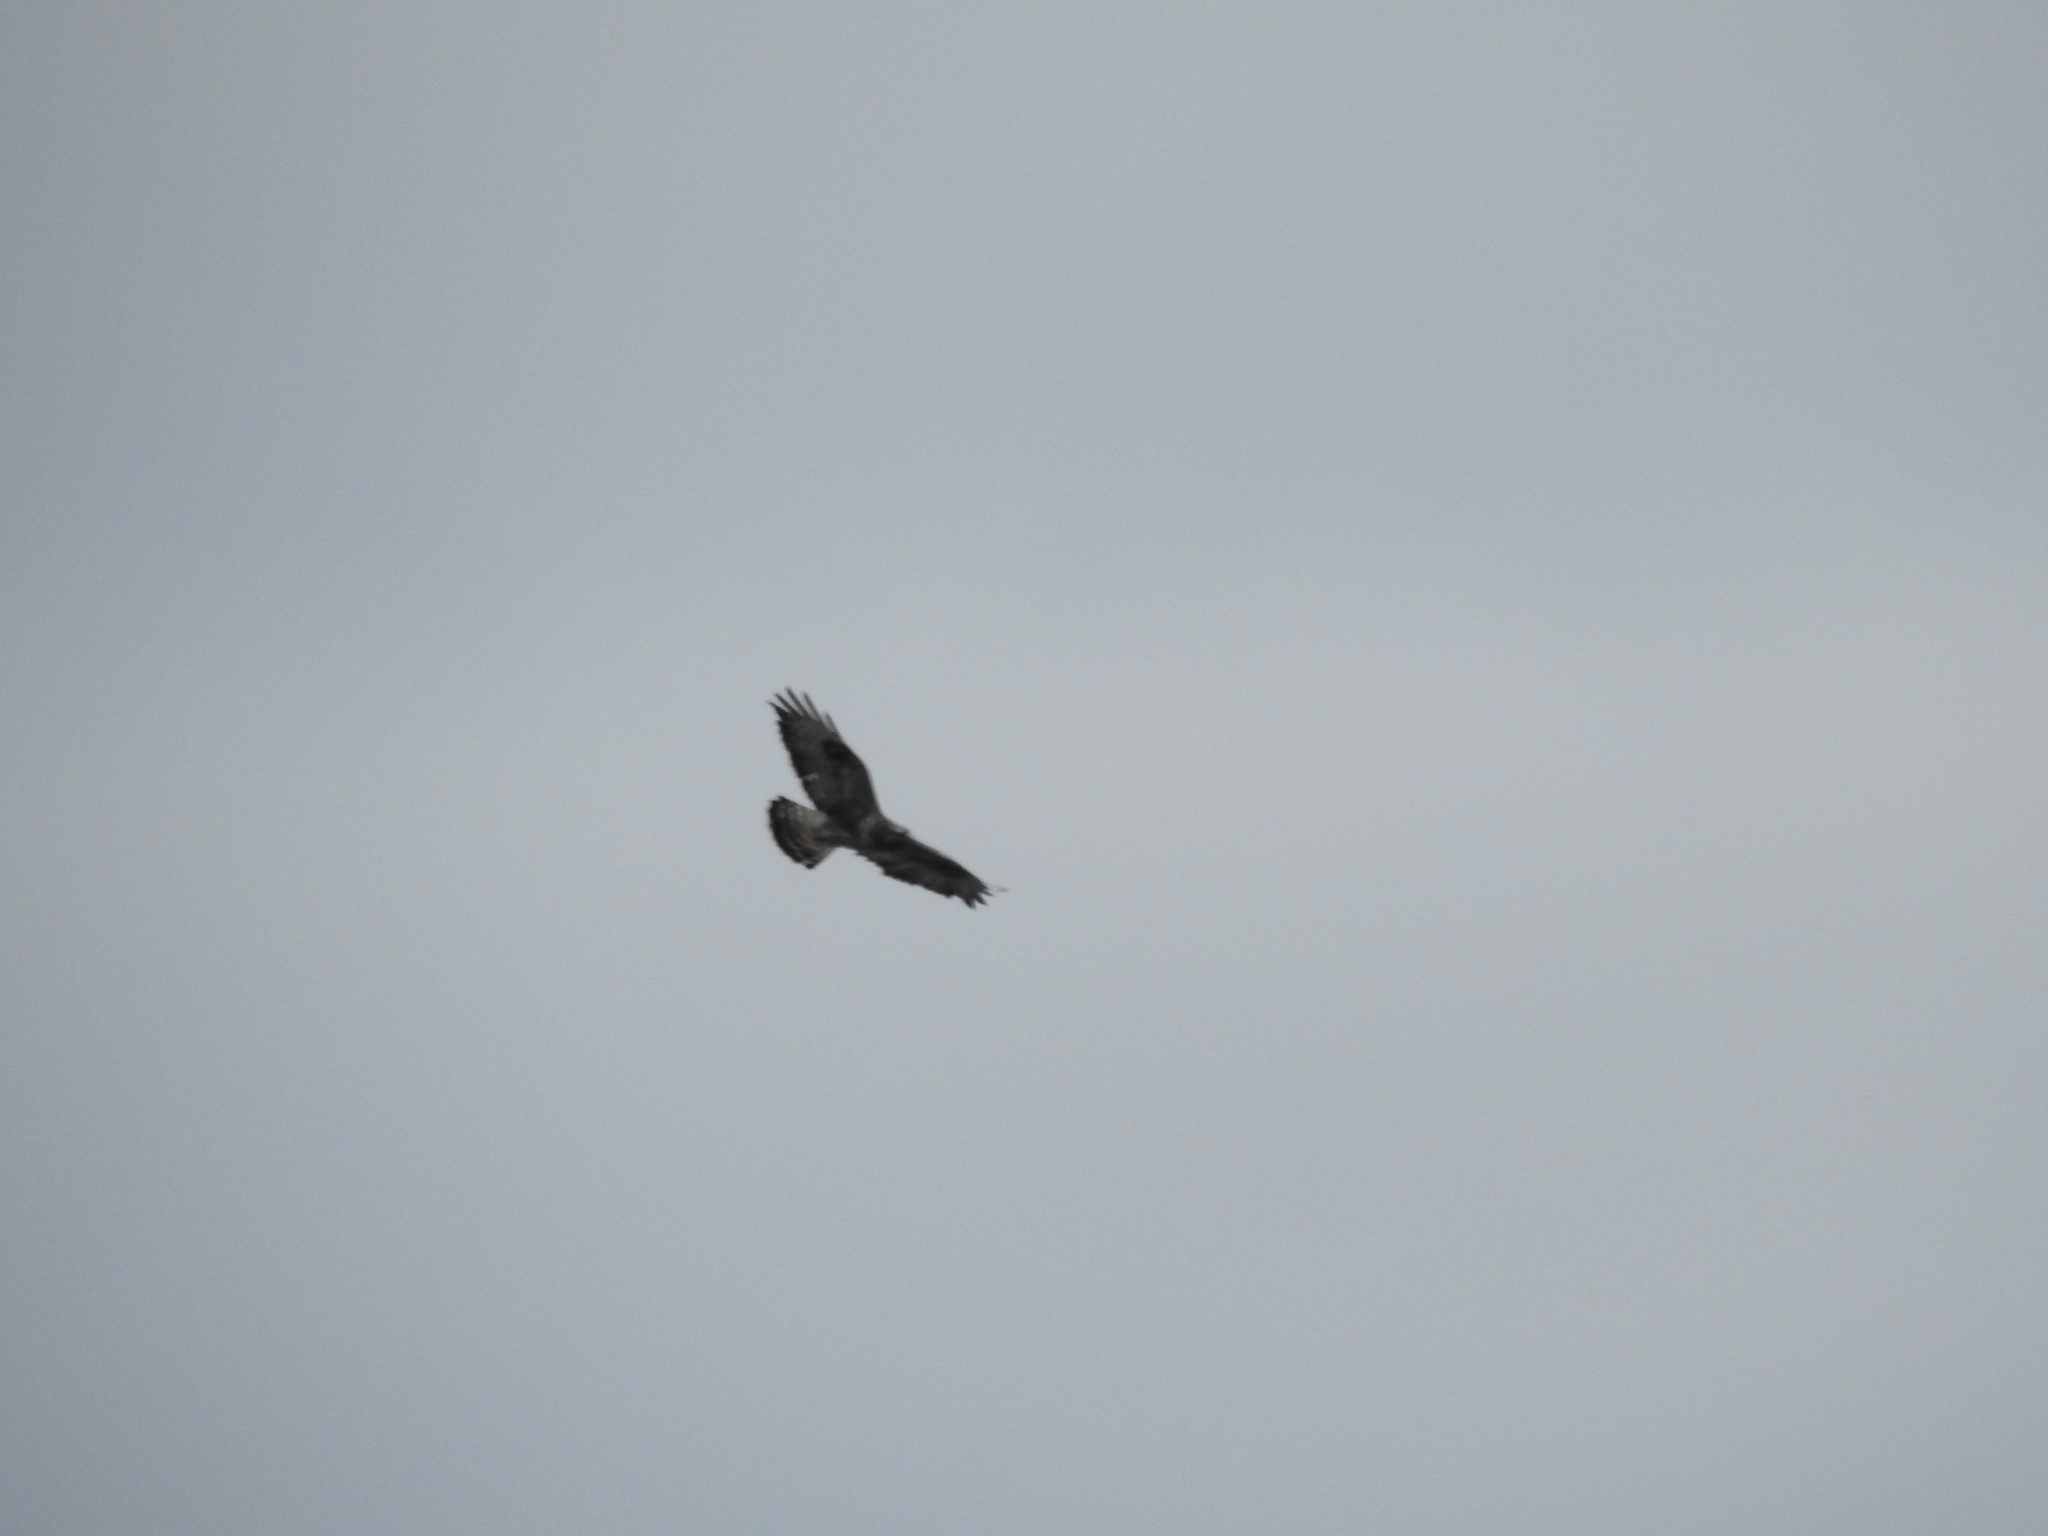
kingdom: Animalia
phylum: Chordata
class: Aves
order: Accipitriformes
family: Accipitridae
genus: Buteo
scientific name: Buteo lagopus
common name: Rough-legged buzzard
